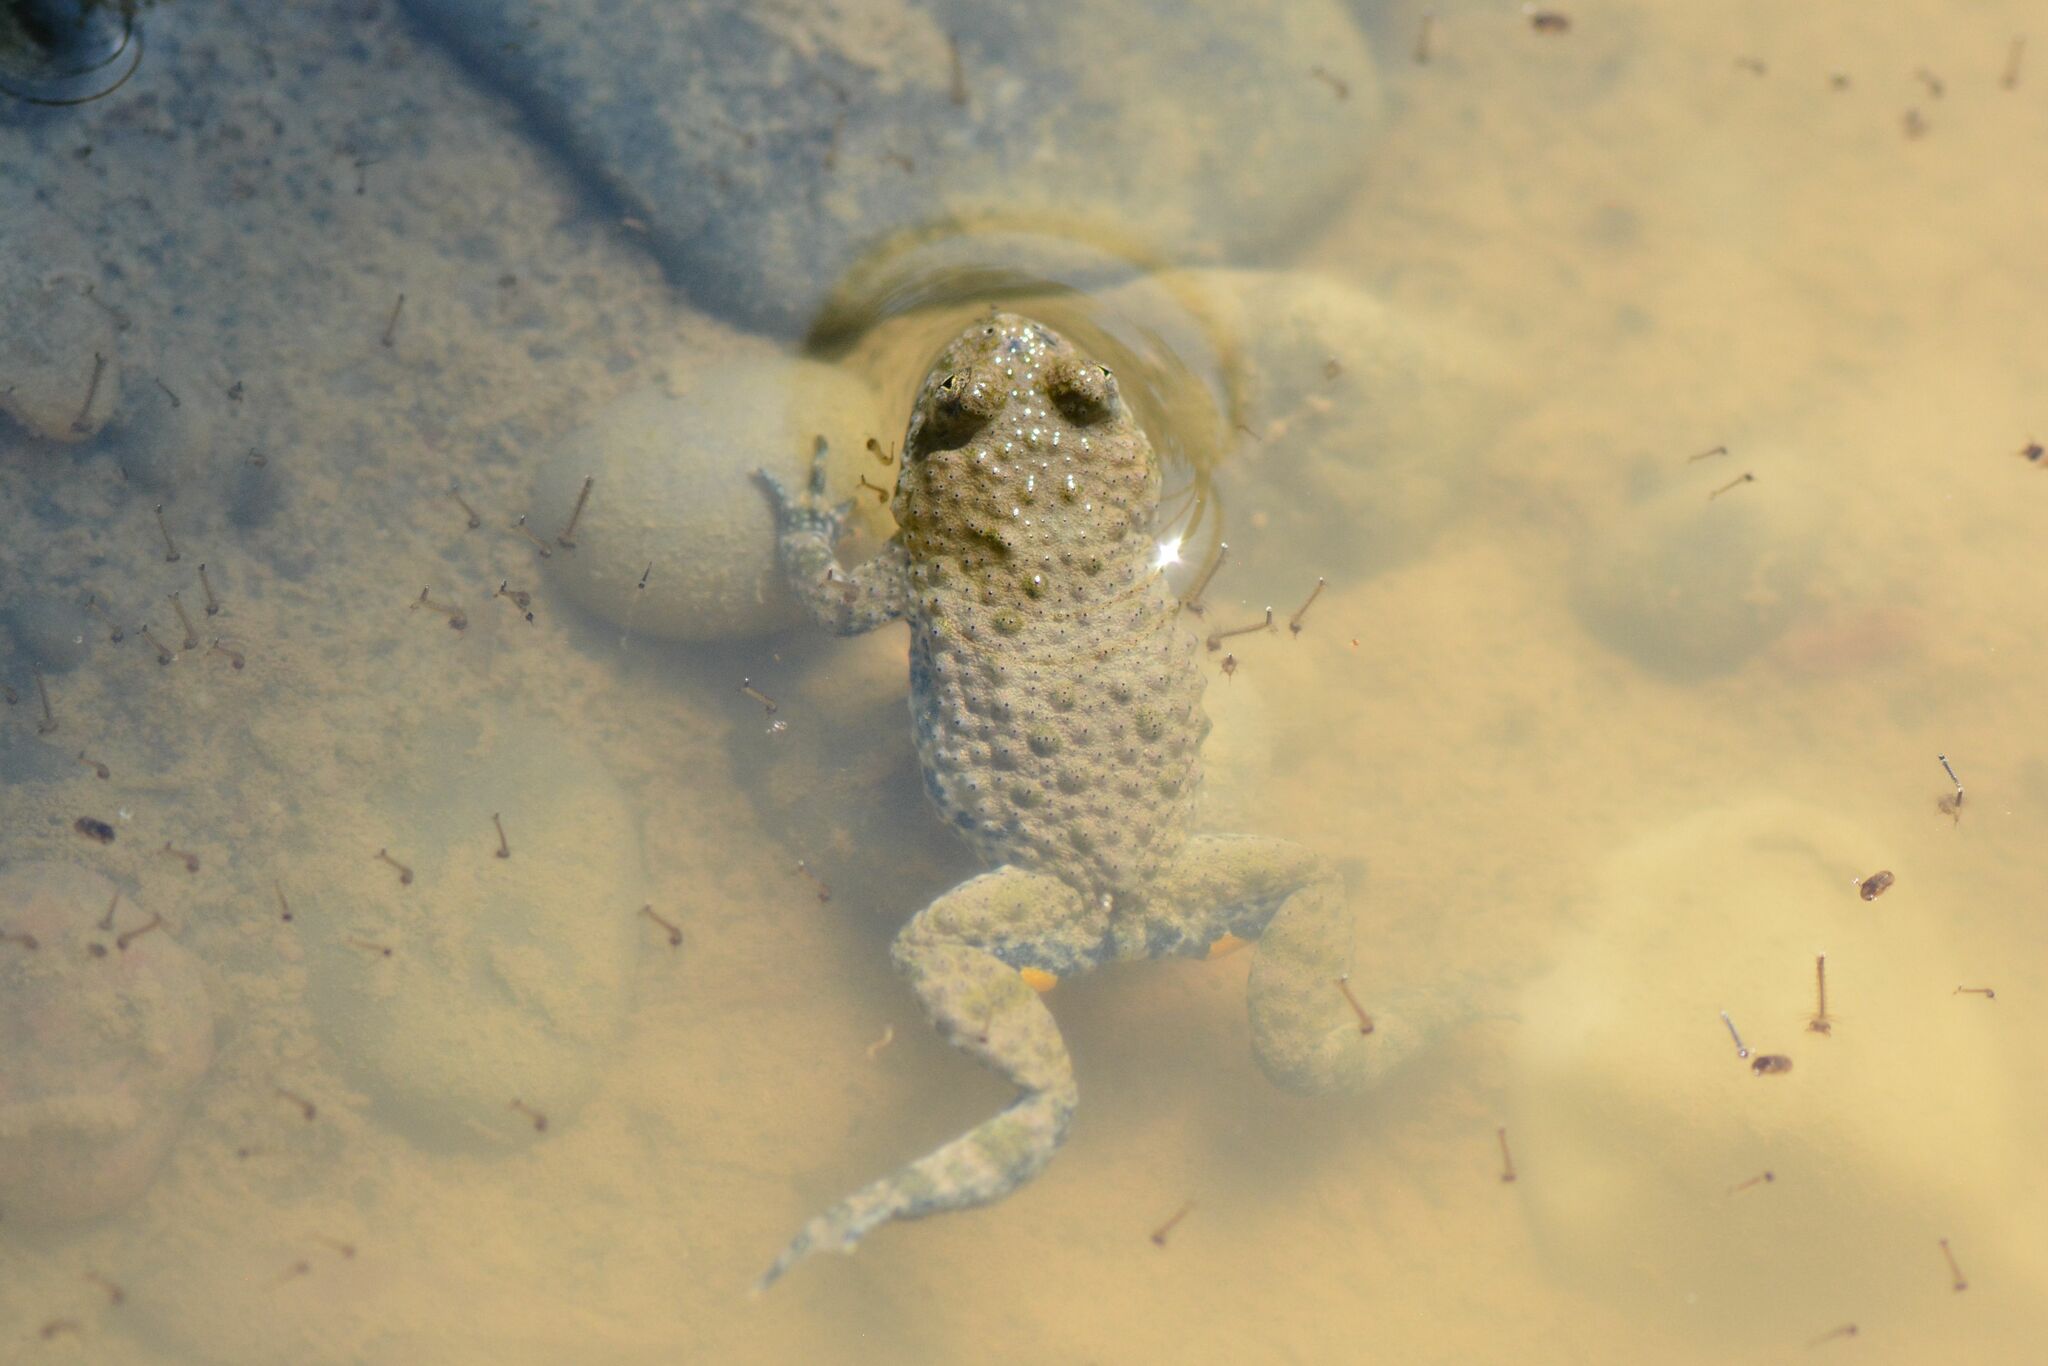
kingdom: Animalia
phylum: Chordata
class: Amphibia
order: Anura
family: Bombinatoridae
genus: Bombina
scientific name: Bombina variegata
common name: Yellow-bellied toad
